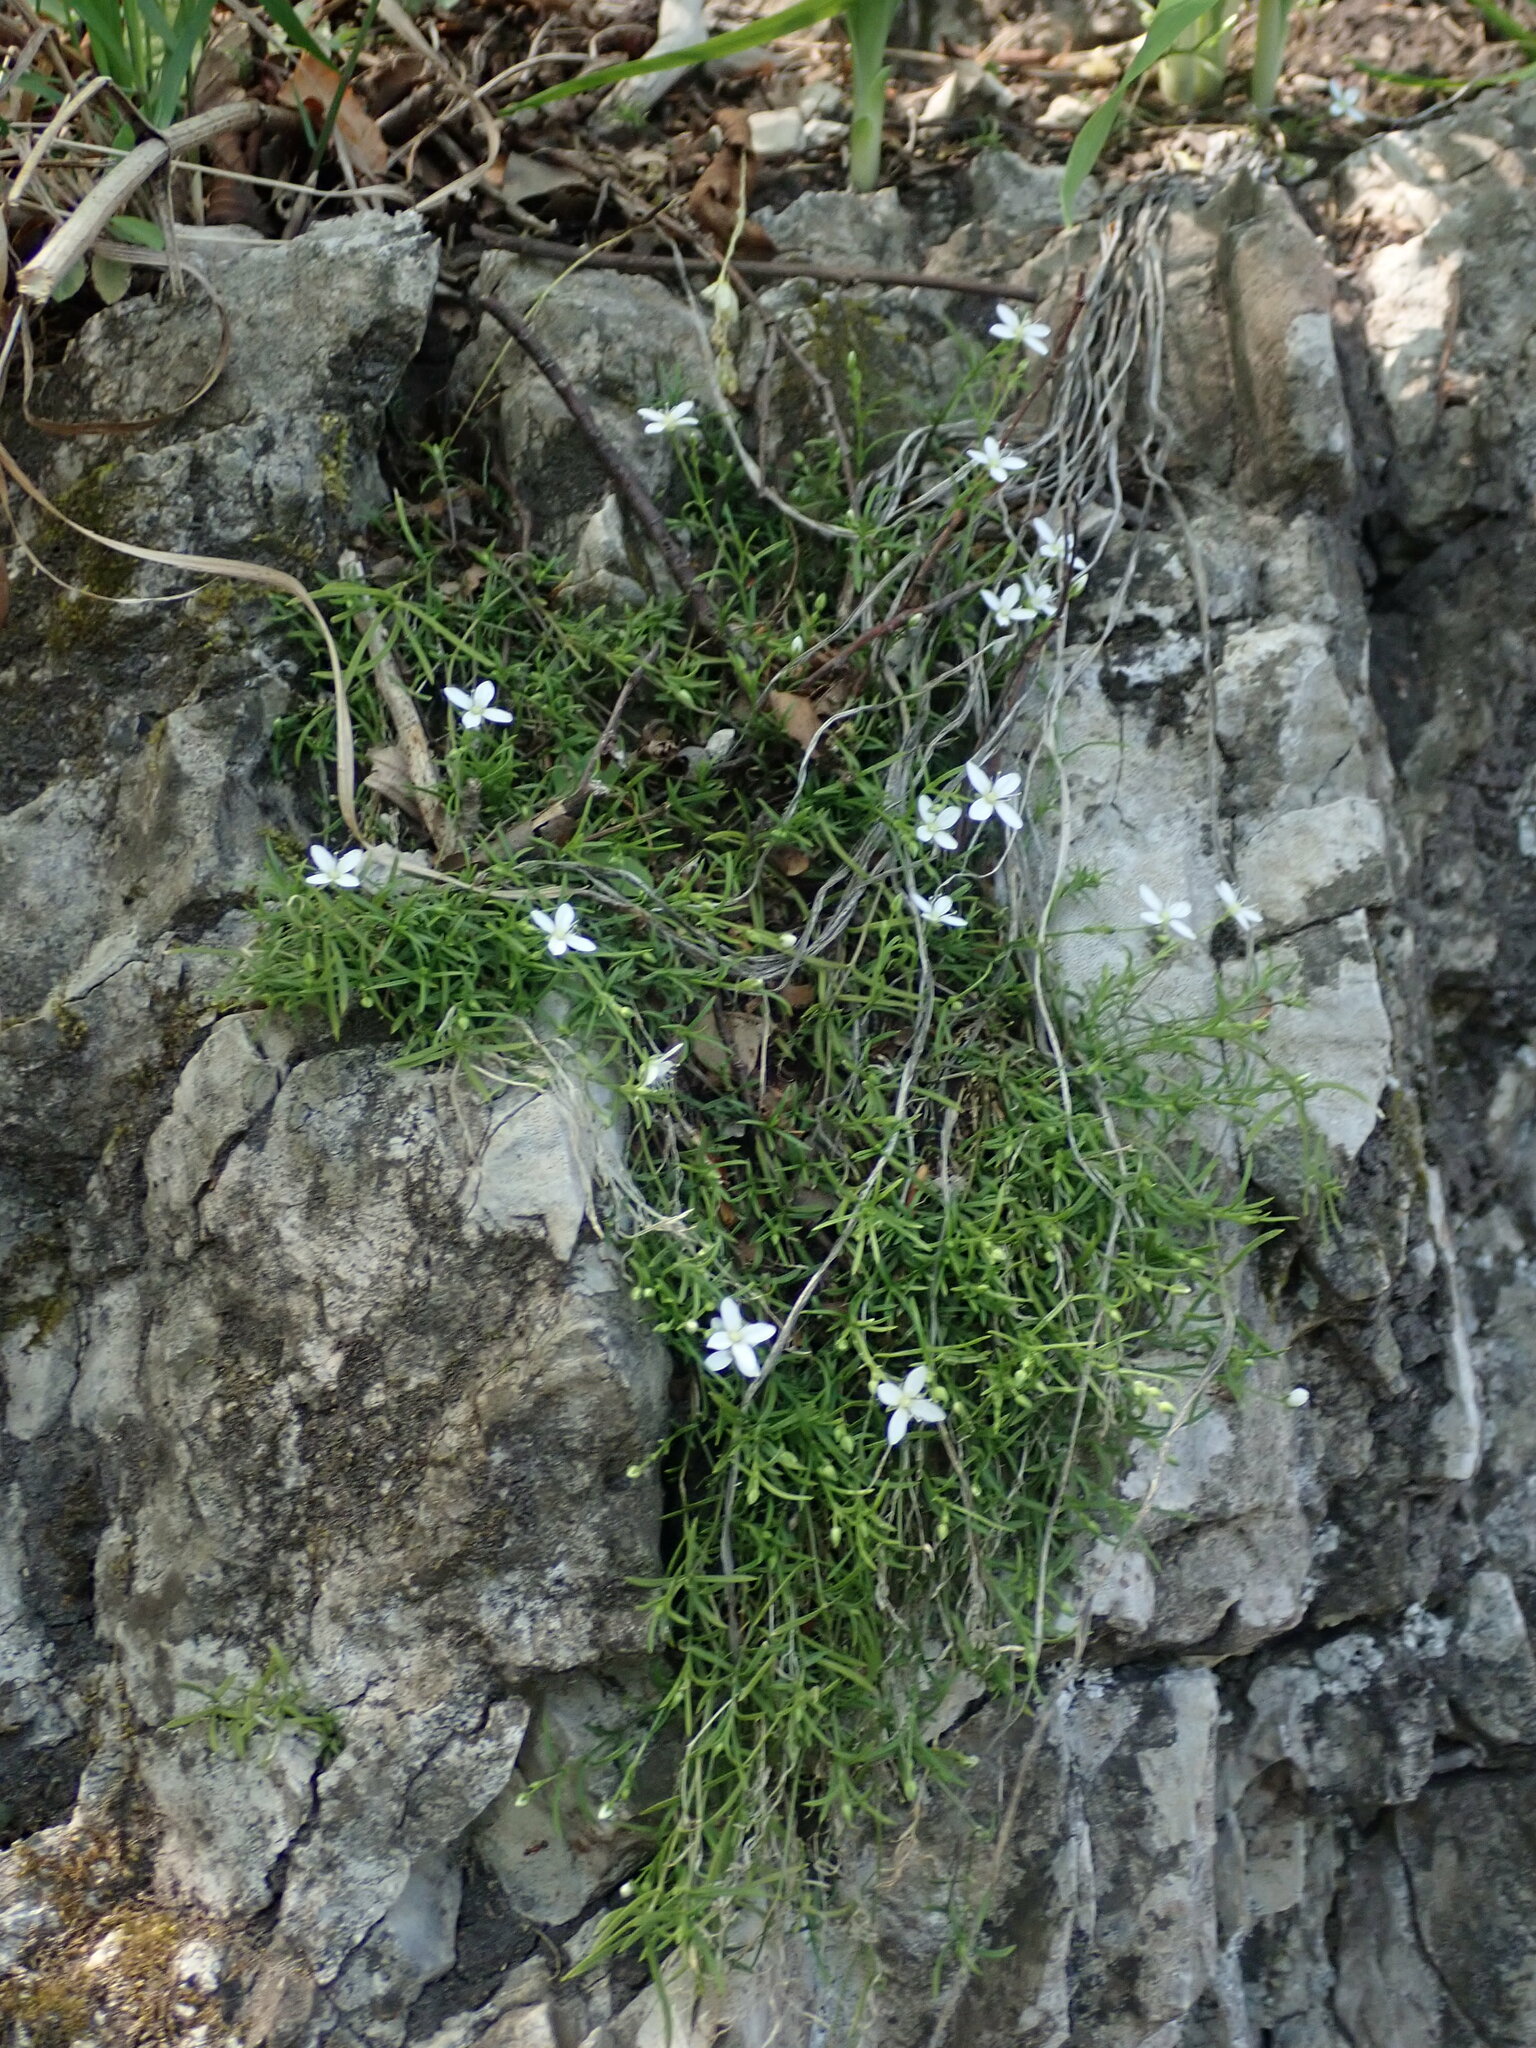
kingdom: Plantae
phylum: Tracheophyta
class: Magnoliopsida
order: Caryophyllales
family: Caryophyllaceae
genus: Moehringia
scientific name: Moehringia muscosa
